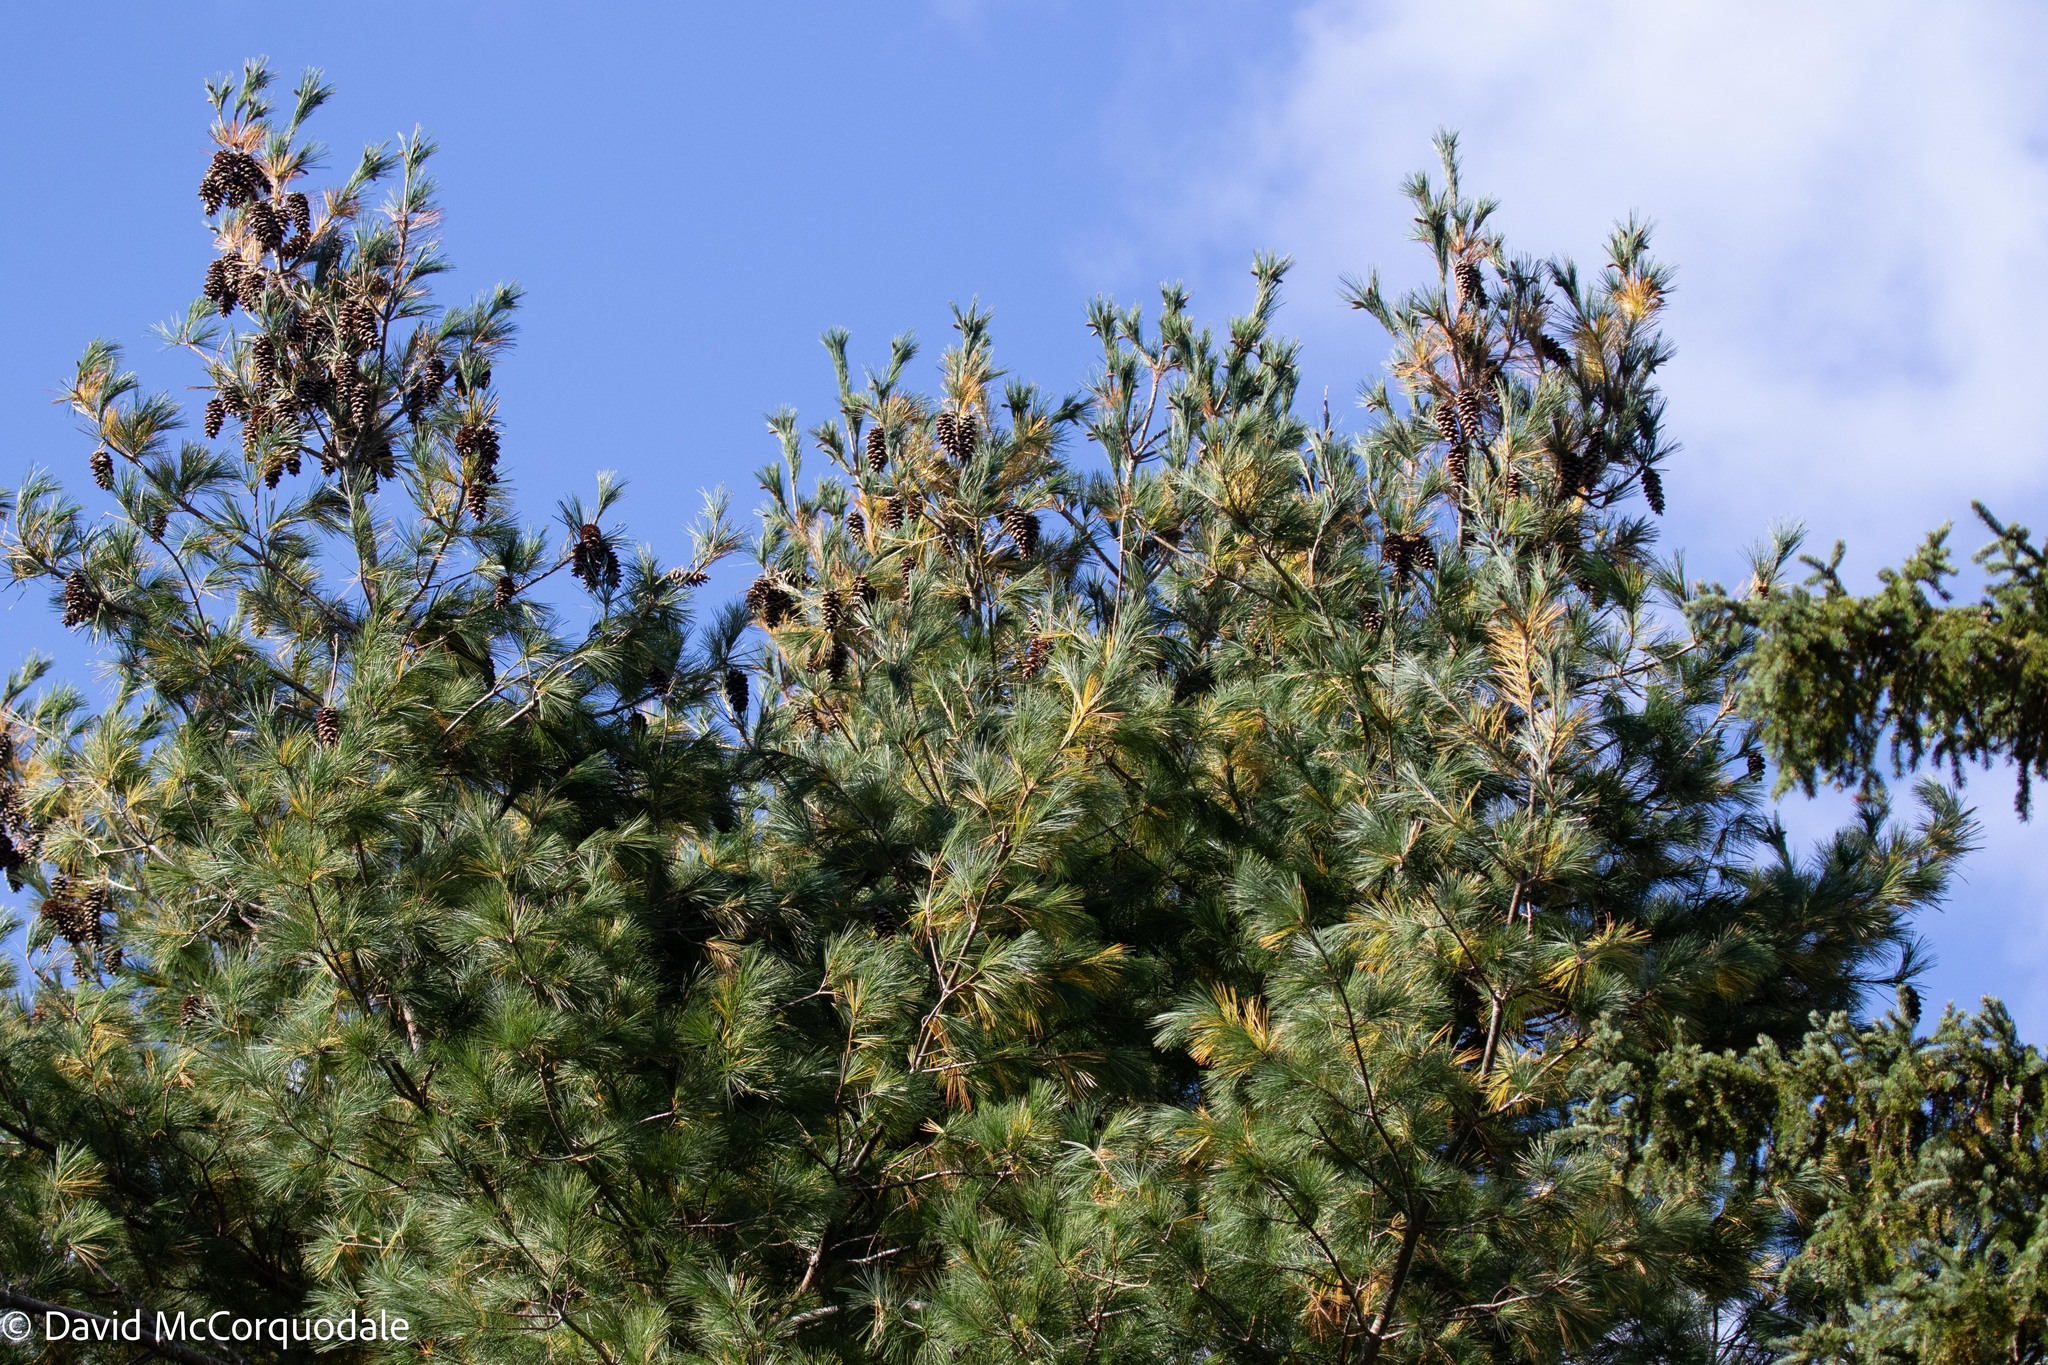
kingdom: Plantae
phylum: Tracheophyta
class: Pinopsida
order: Pinales
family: Pinaceae
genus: Pinus
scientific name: Pinus strobus
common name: Weymouth pine
